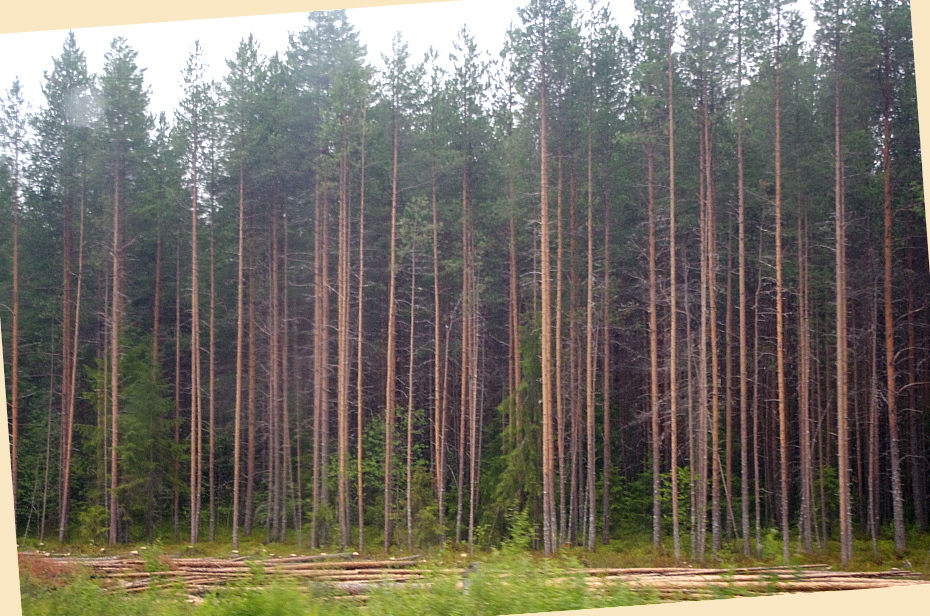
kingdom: Plantae
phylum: Tracheophyta
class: Pinopsida
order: Pinales
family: Pinaceae
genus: Pinus
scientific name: Pinus sylvestris
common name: Scots pine
